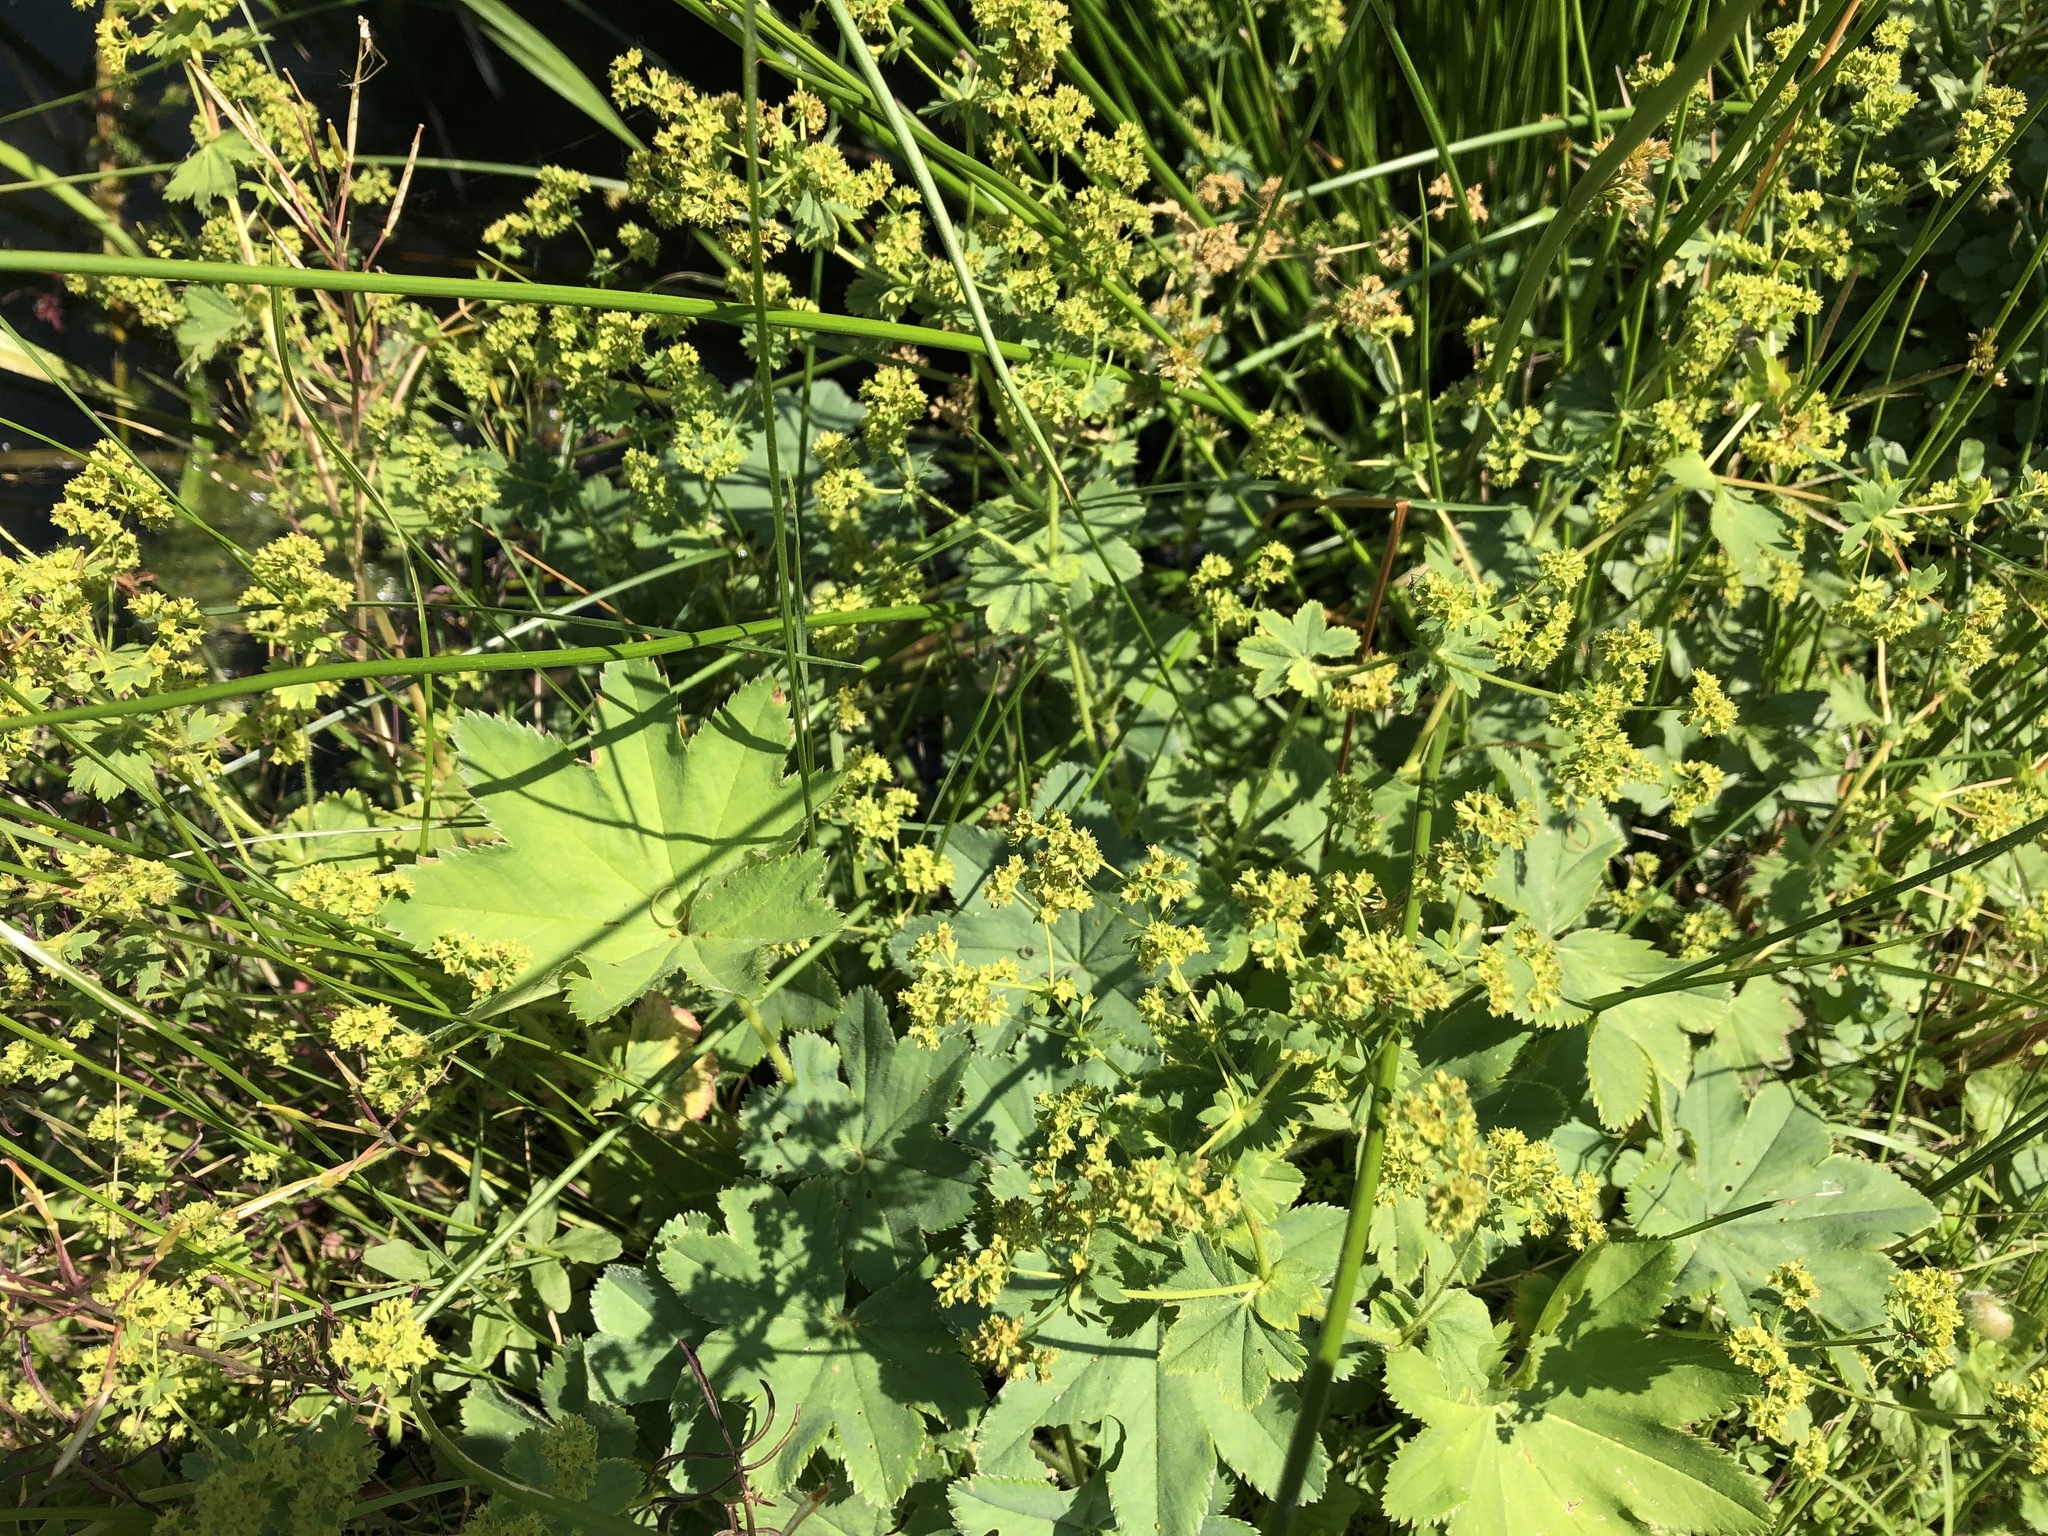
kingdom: Plantae
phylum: Tracheophyta
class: Magnoliopsida
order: Rosales
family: Rosaceae
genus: Alchemilla
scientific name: Alchemilla vulgaris
